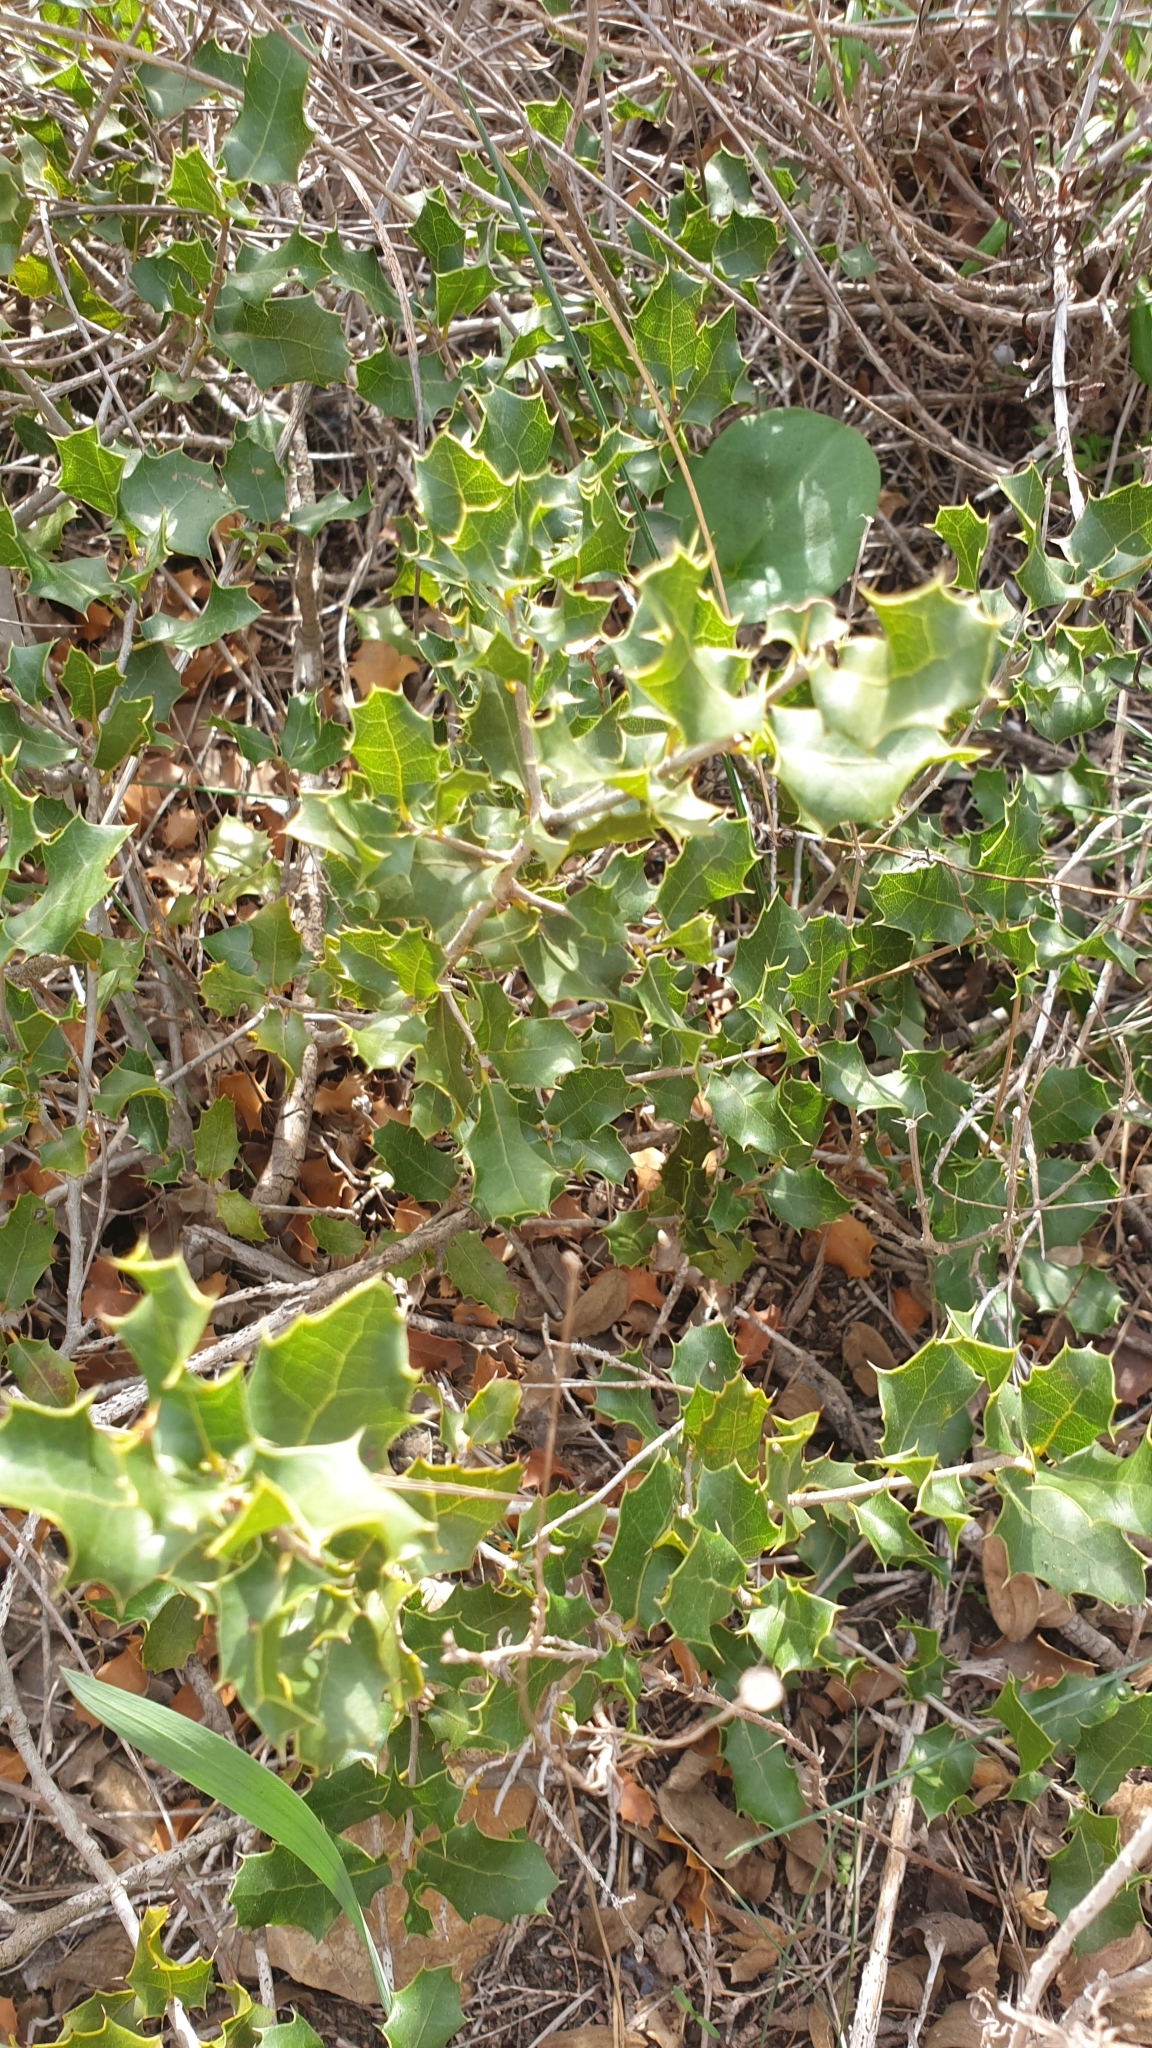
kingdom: Plantae
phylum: Tracheophyta
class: Magnoliopsida
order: Fagales
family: Fagaceae
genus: Quercus
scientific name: Quercus coccifera
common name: Kermes oak
